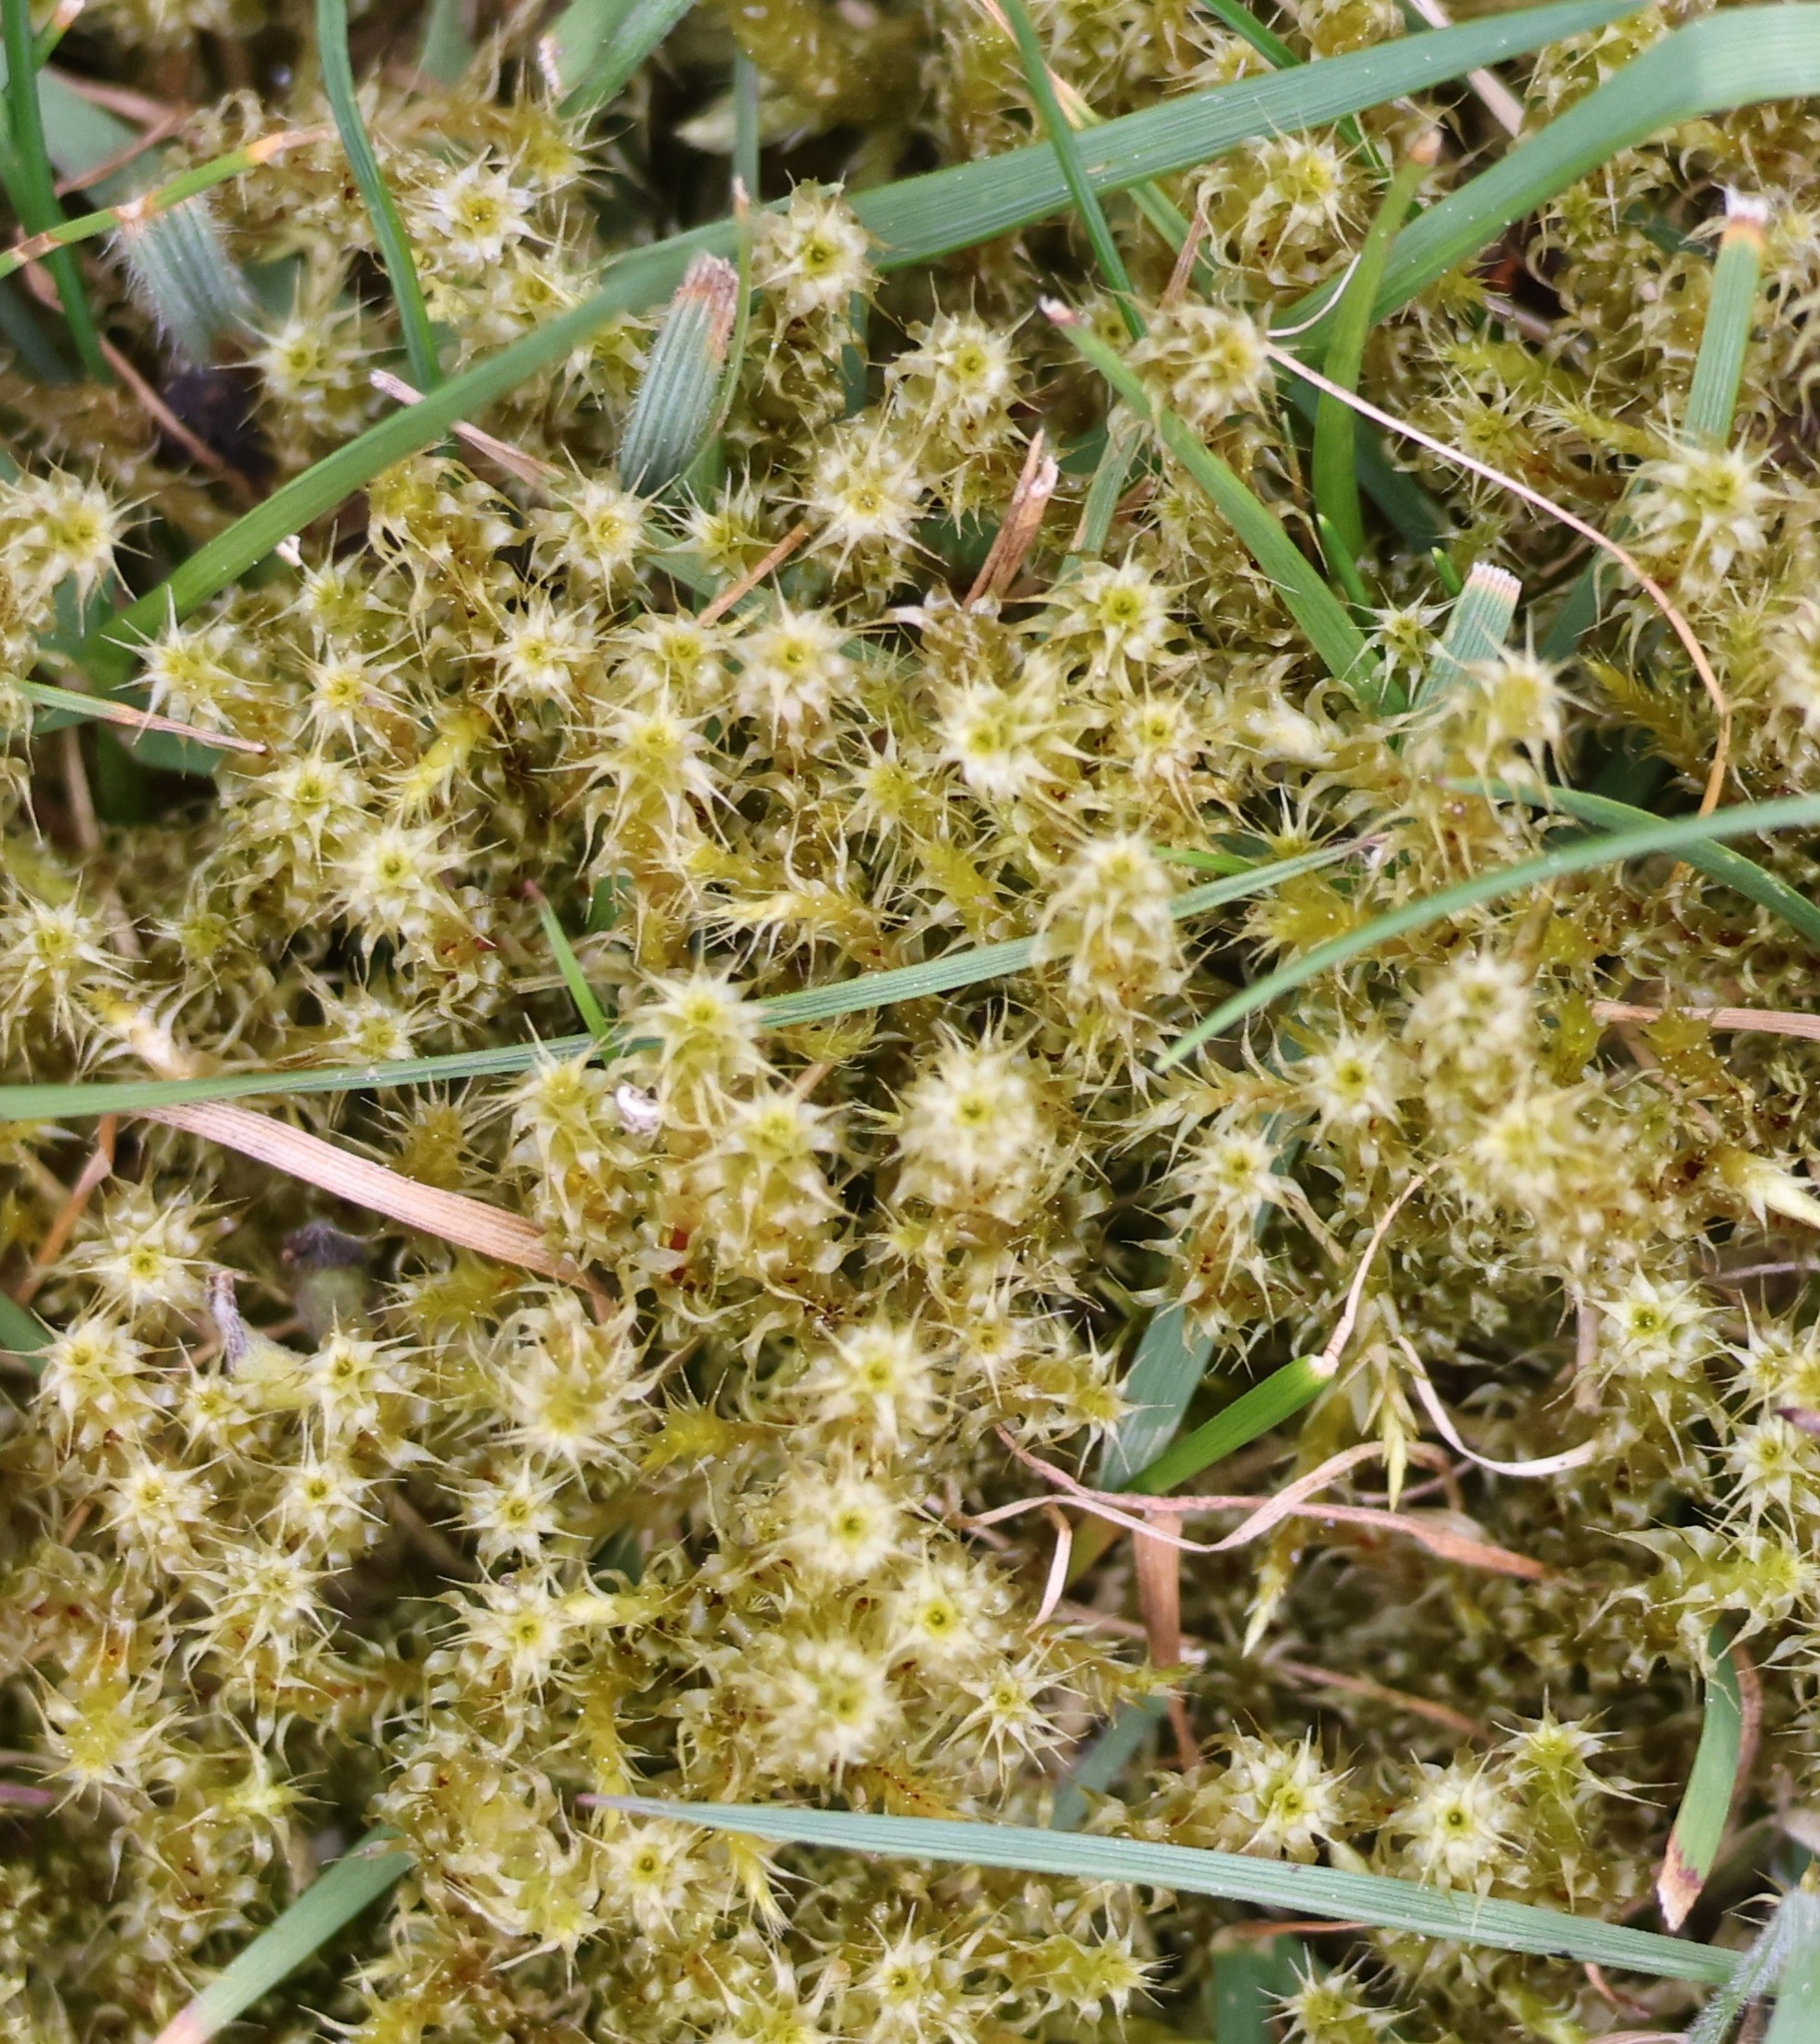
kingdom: Plantae
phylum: Bryophyta
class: Bryopsida
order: Hypnales
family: Hylocomiaceae
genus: Rhytidiadelphus
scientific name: Rhytidiadelphus squarrosus
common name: Springy turf-moss
